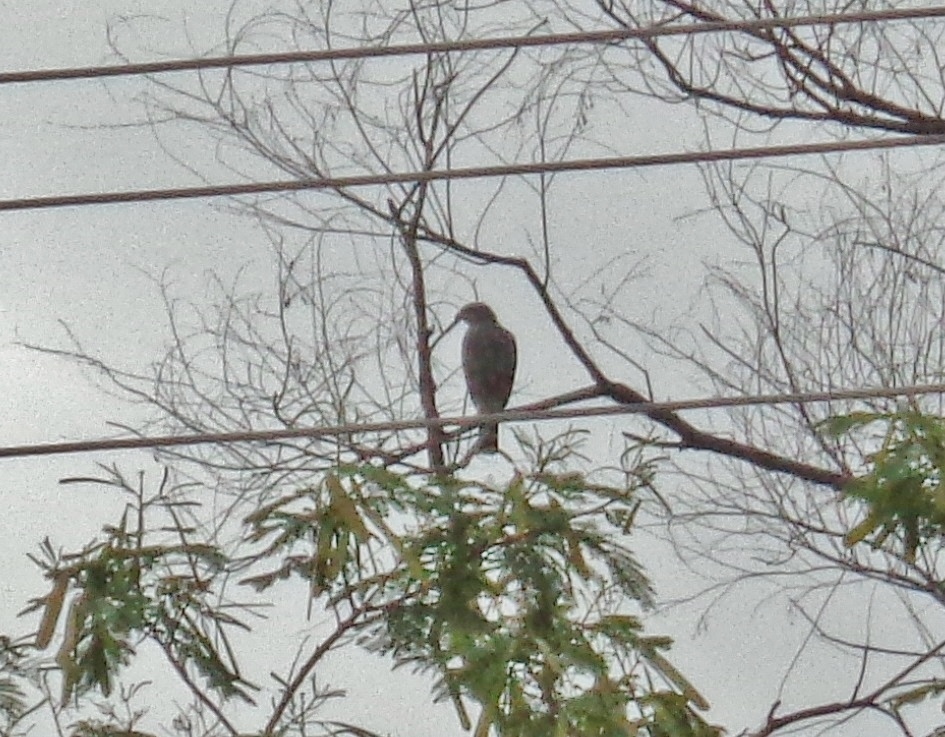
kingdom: Animalia
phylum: Chordata
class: Aves
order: Accipitriformes
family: Accipitridae
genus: Buteo
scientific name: Buteo nitidus
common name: Grey-lined hawk
